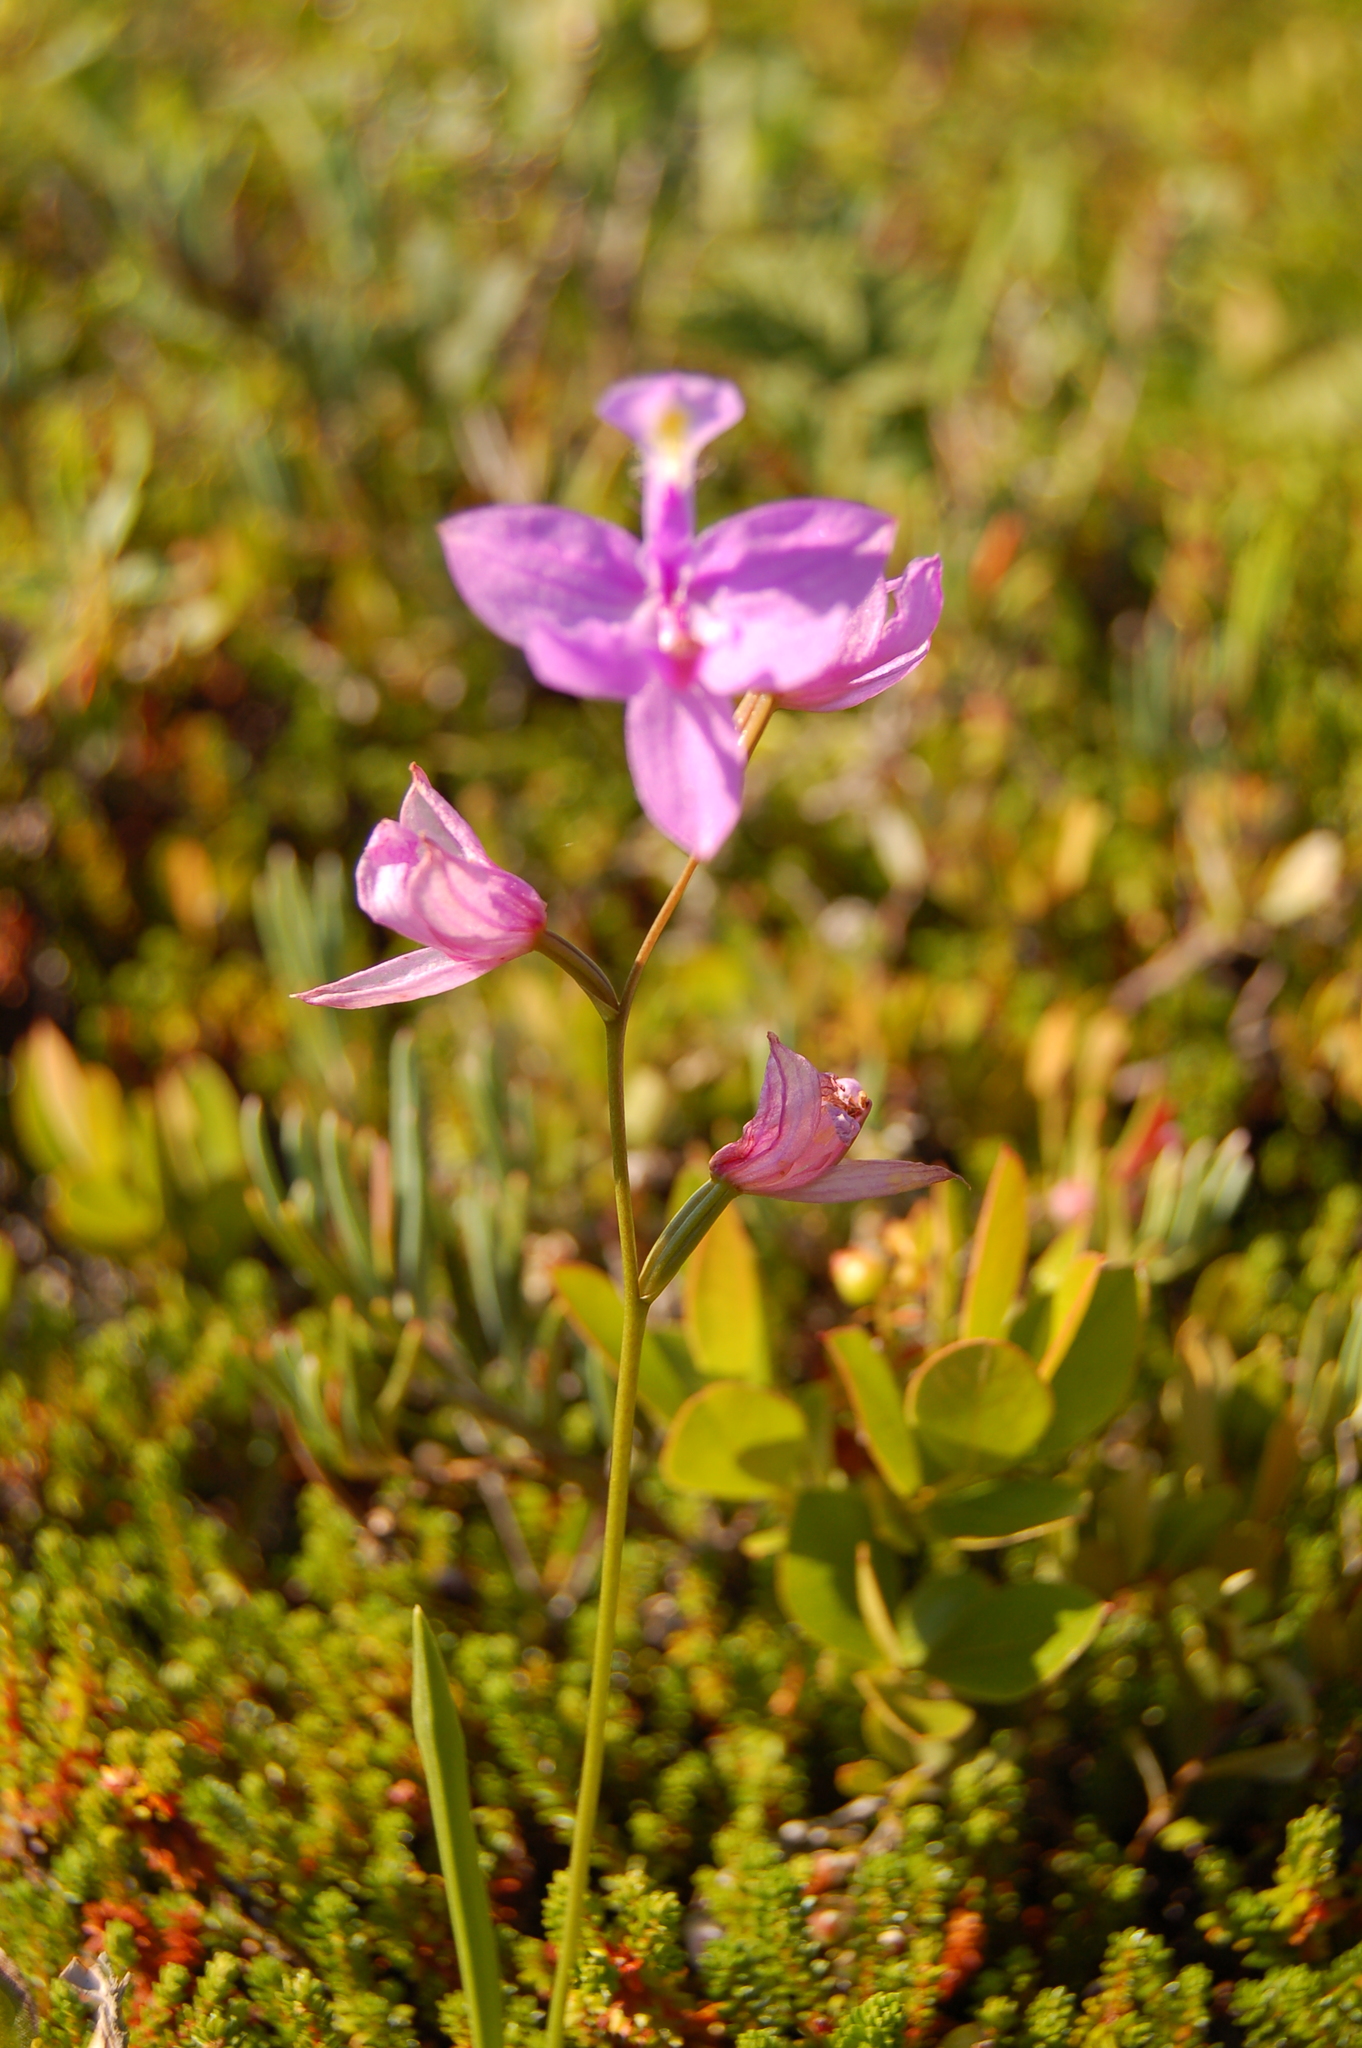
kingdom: Plantae
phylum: Tracheophyta
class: Liliopsida
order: Asparagales
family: Orchidaceae
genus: Calopogon
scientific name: Calopogon tuberosus
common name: Grass-pink
